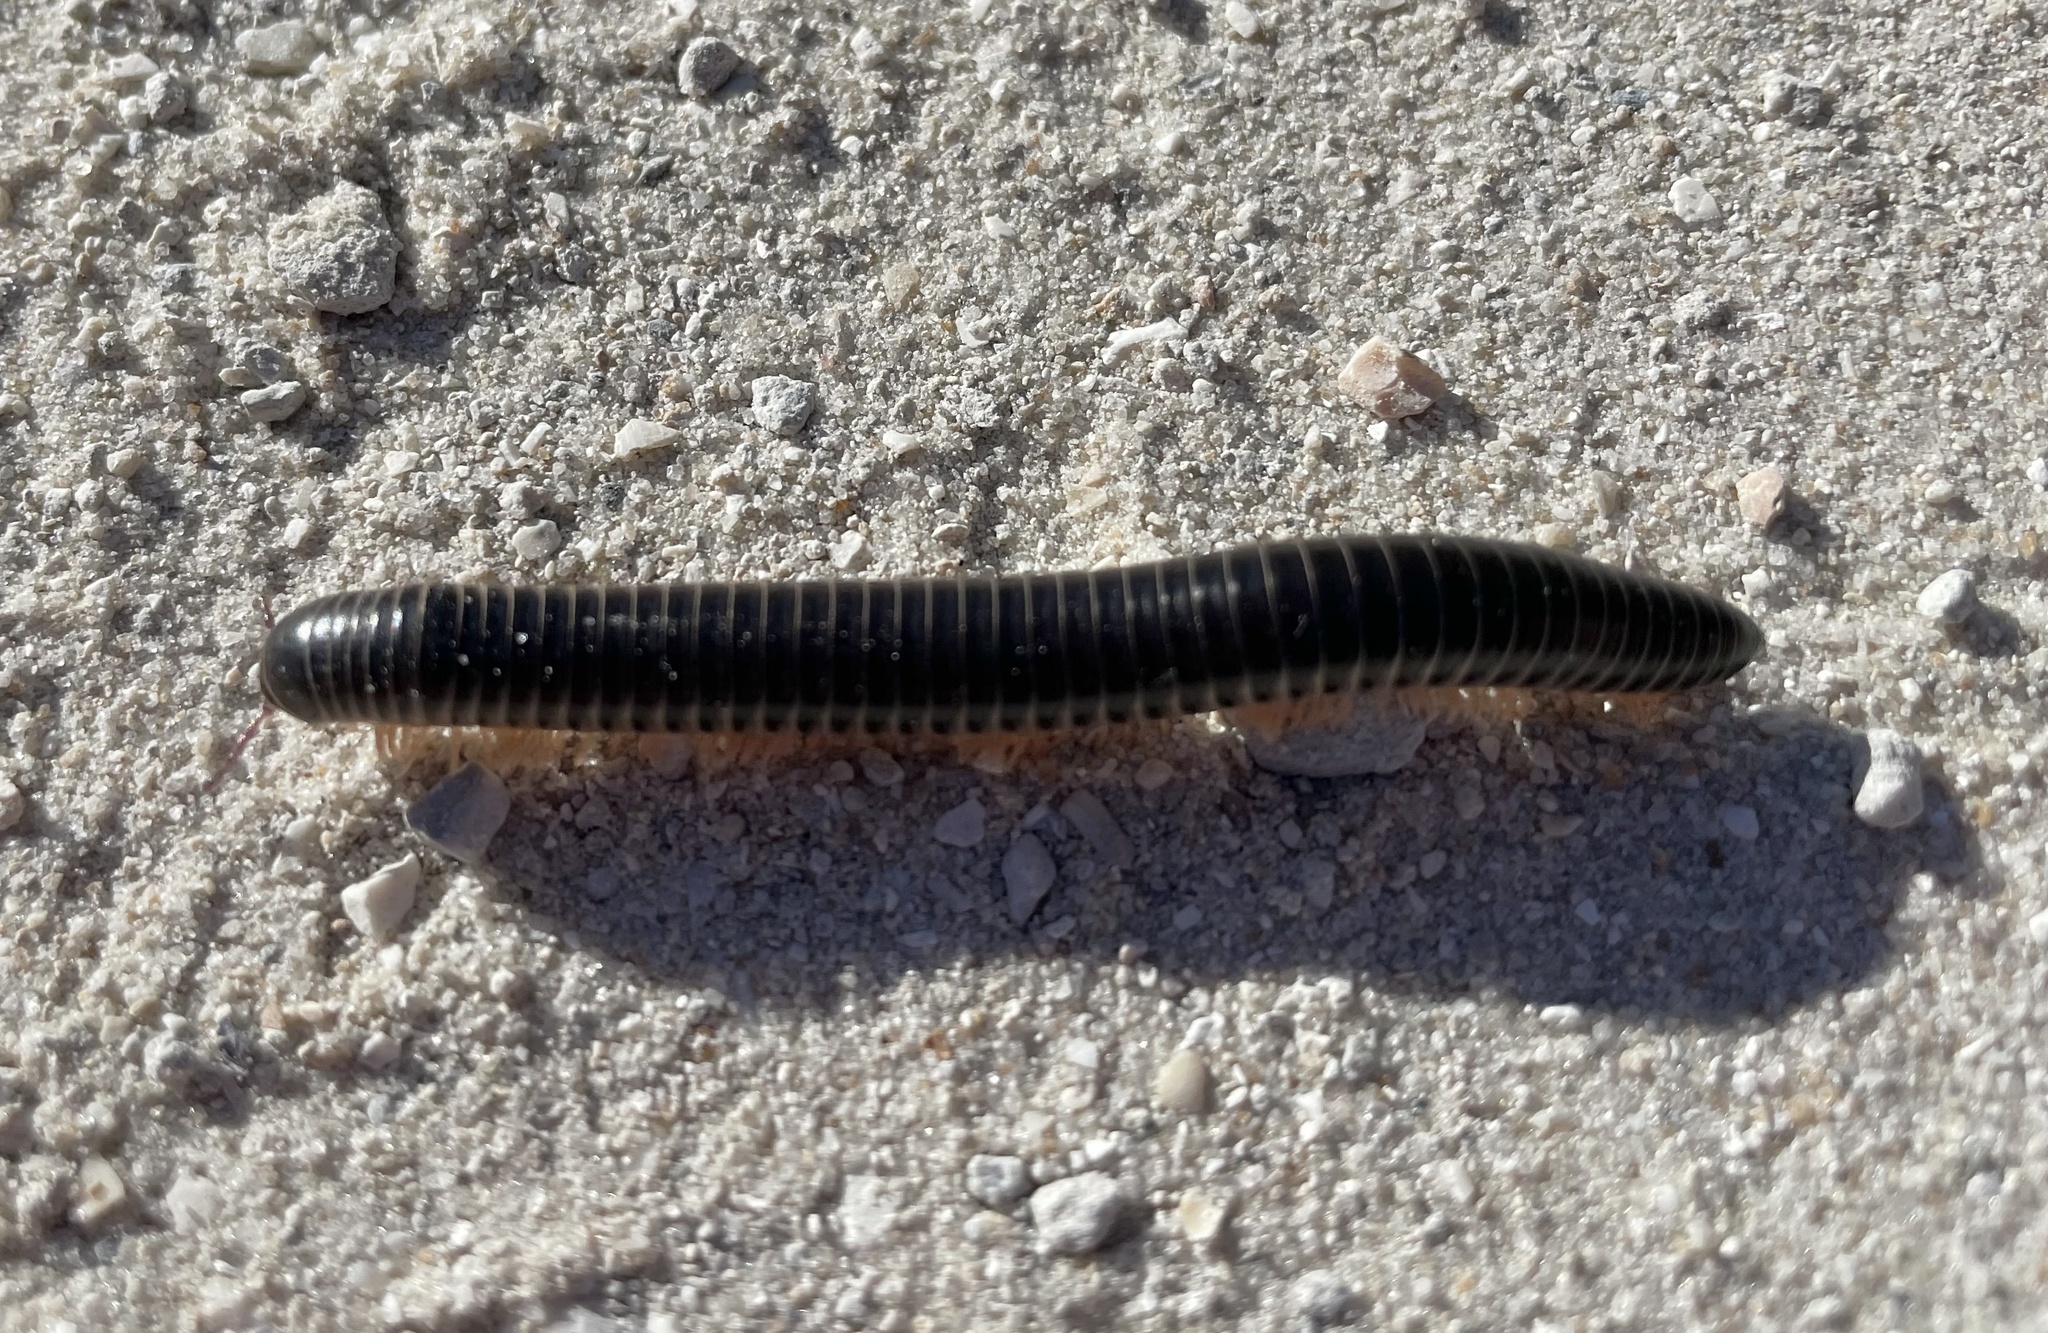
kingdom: Animalia
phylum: Arthropoda
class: Diplopoda
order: Spirobolida
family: Spirobolidae
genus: Chicobolus
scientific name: Chicobolus spinigerus
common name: Florida ivory millipede
